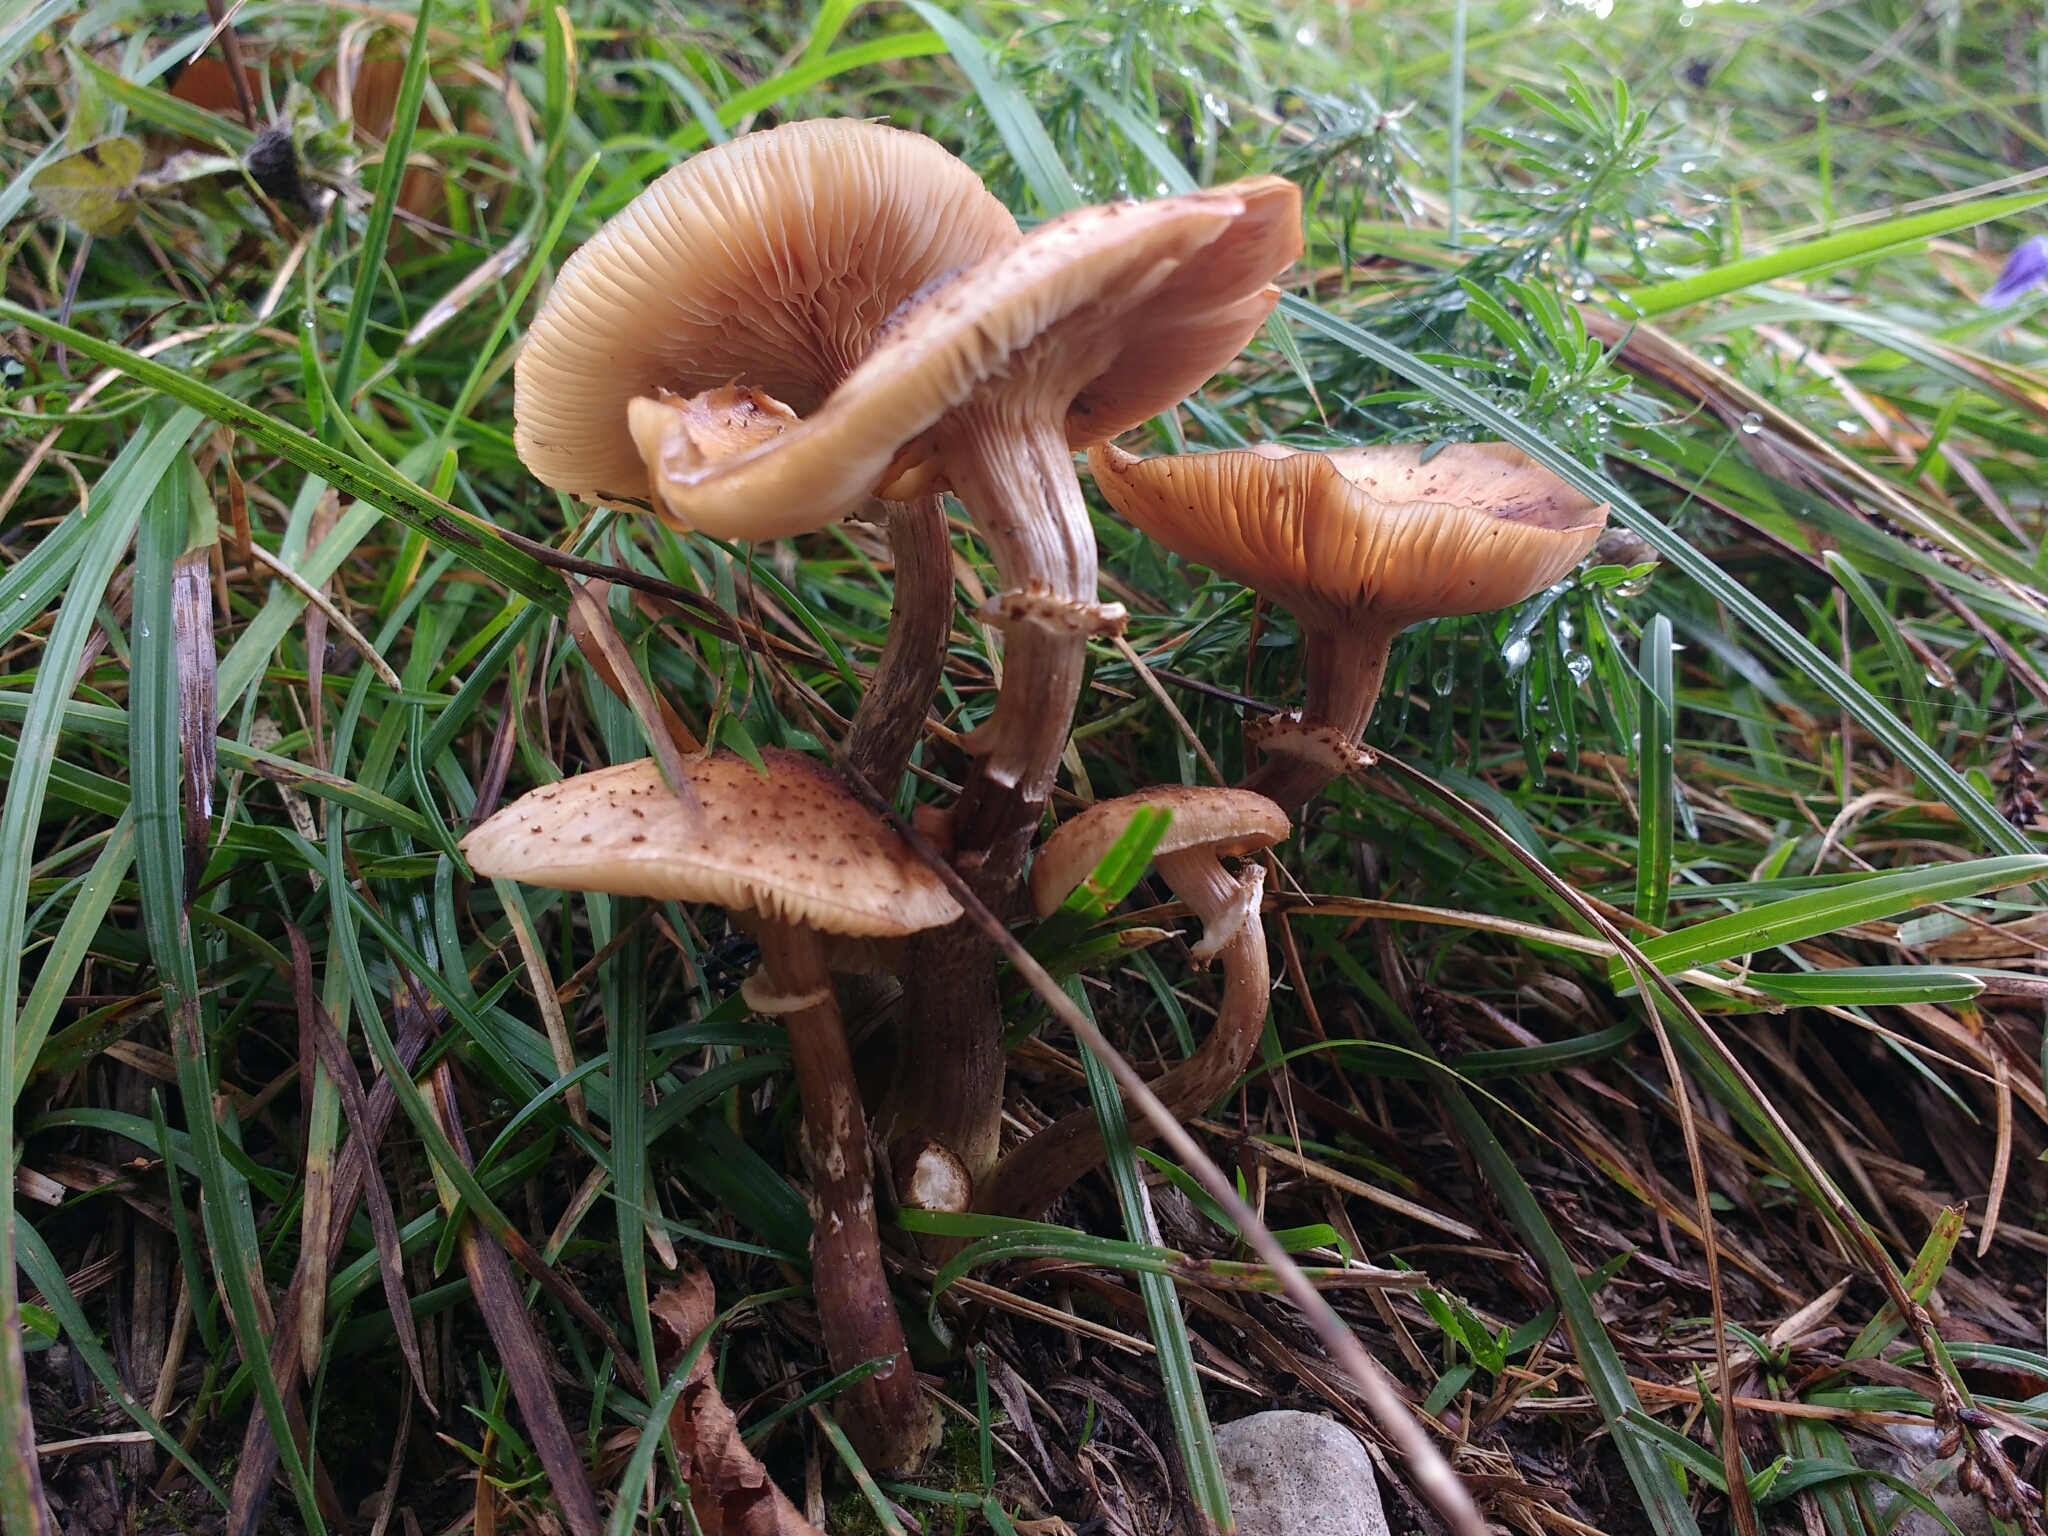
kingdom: Fungi
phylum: Basidiomycota
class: Agaricomycetes
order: Agaricales
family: Physalacriaceae
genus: Armillaria
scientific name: Armillaria mellea
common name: Honey fungus
